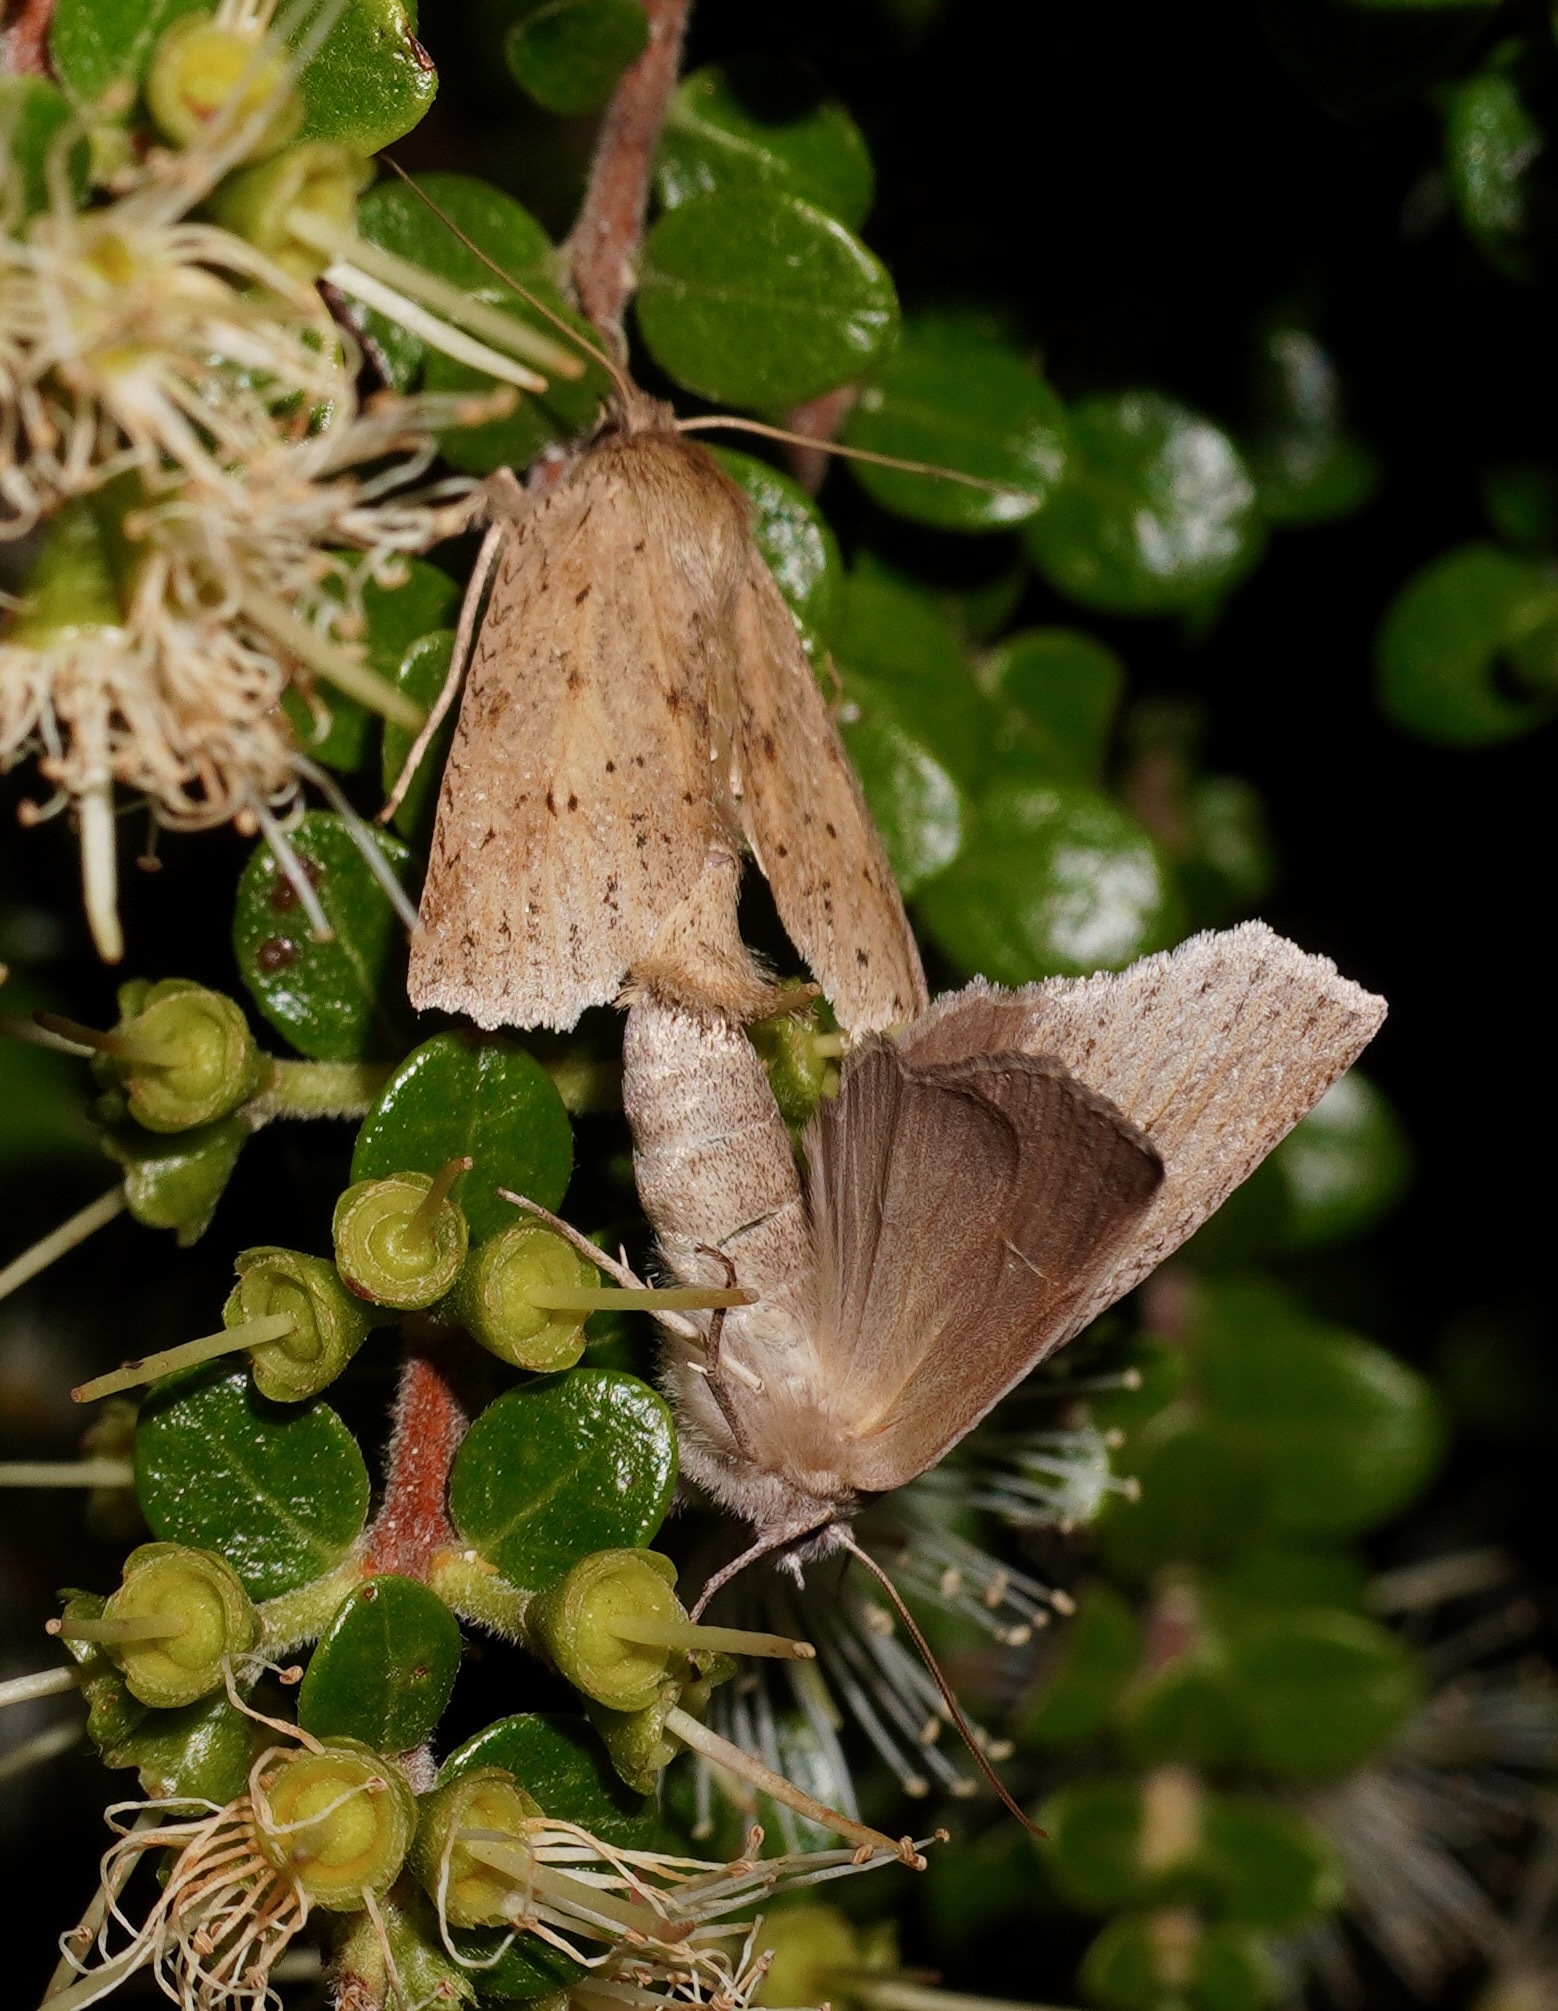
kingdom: Animalia
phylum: Arthropoda
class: Insecta
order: Lepidoptera
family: Geometridae
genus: Declana
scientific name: Declana leptomera
